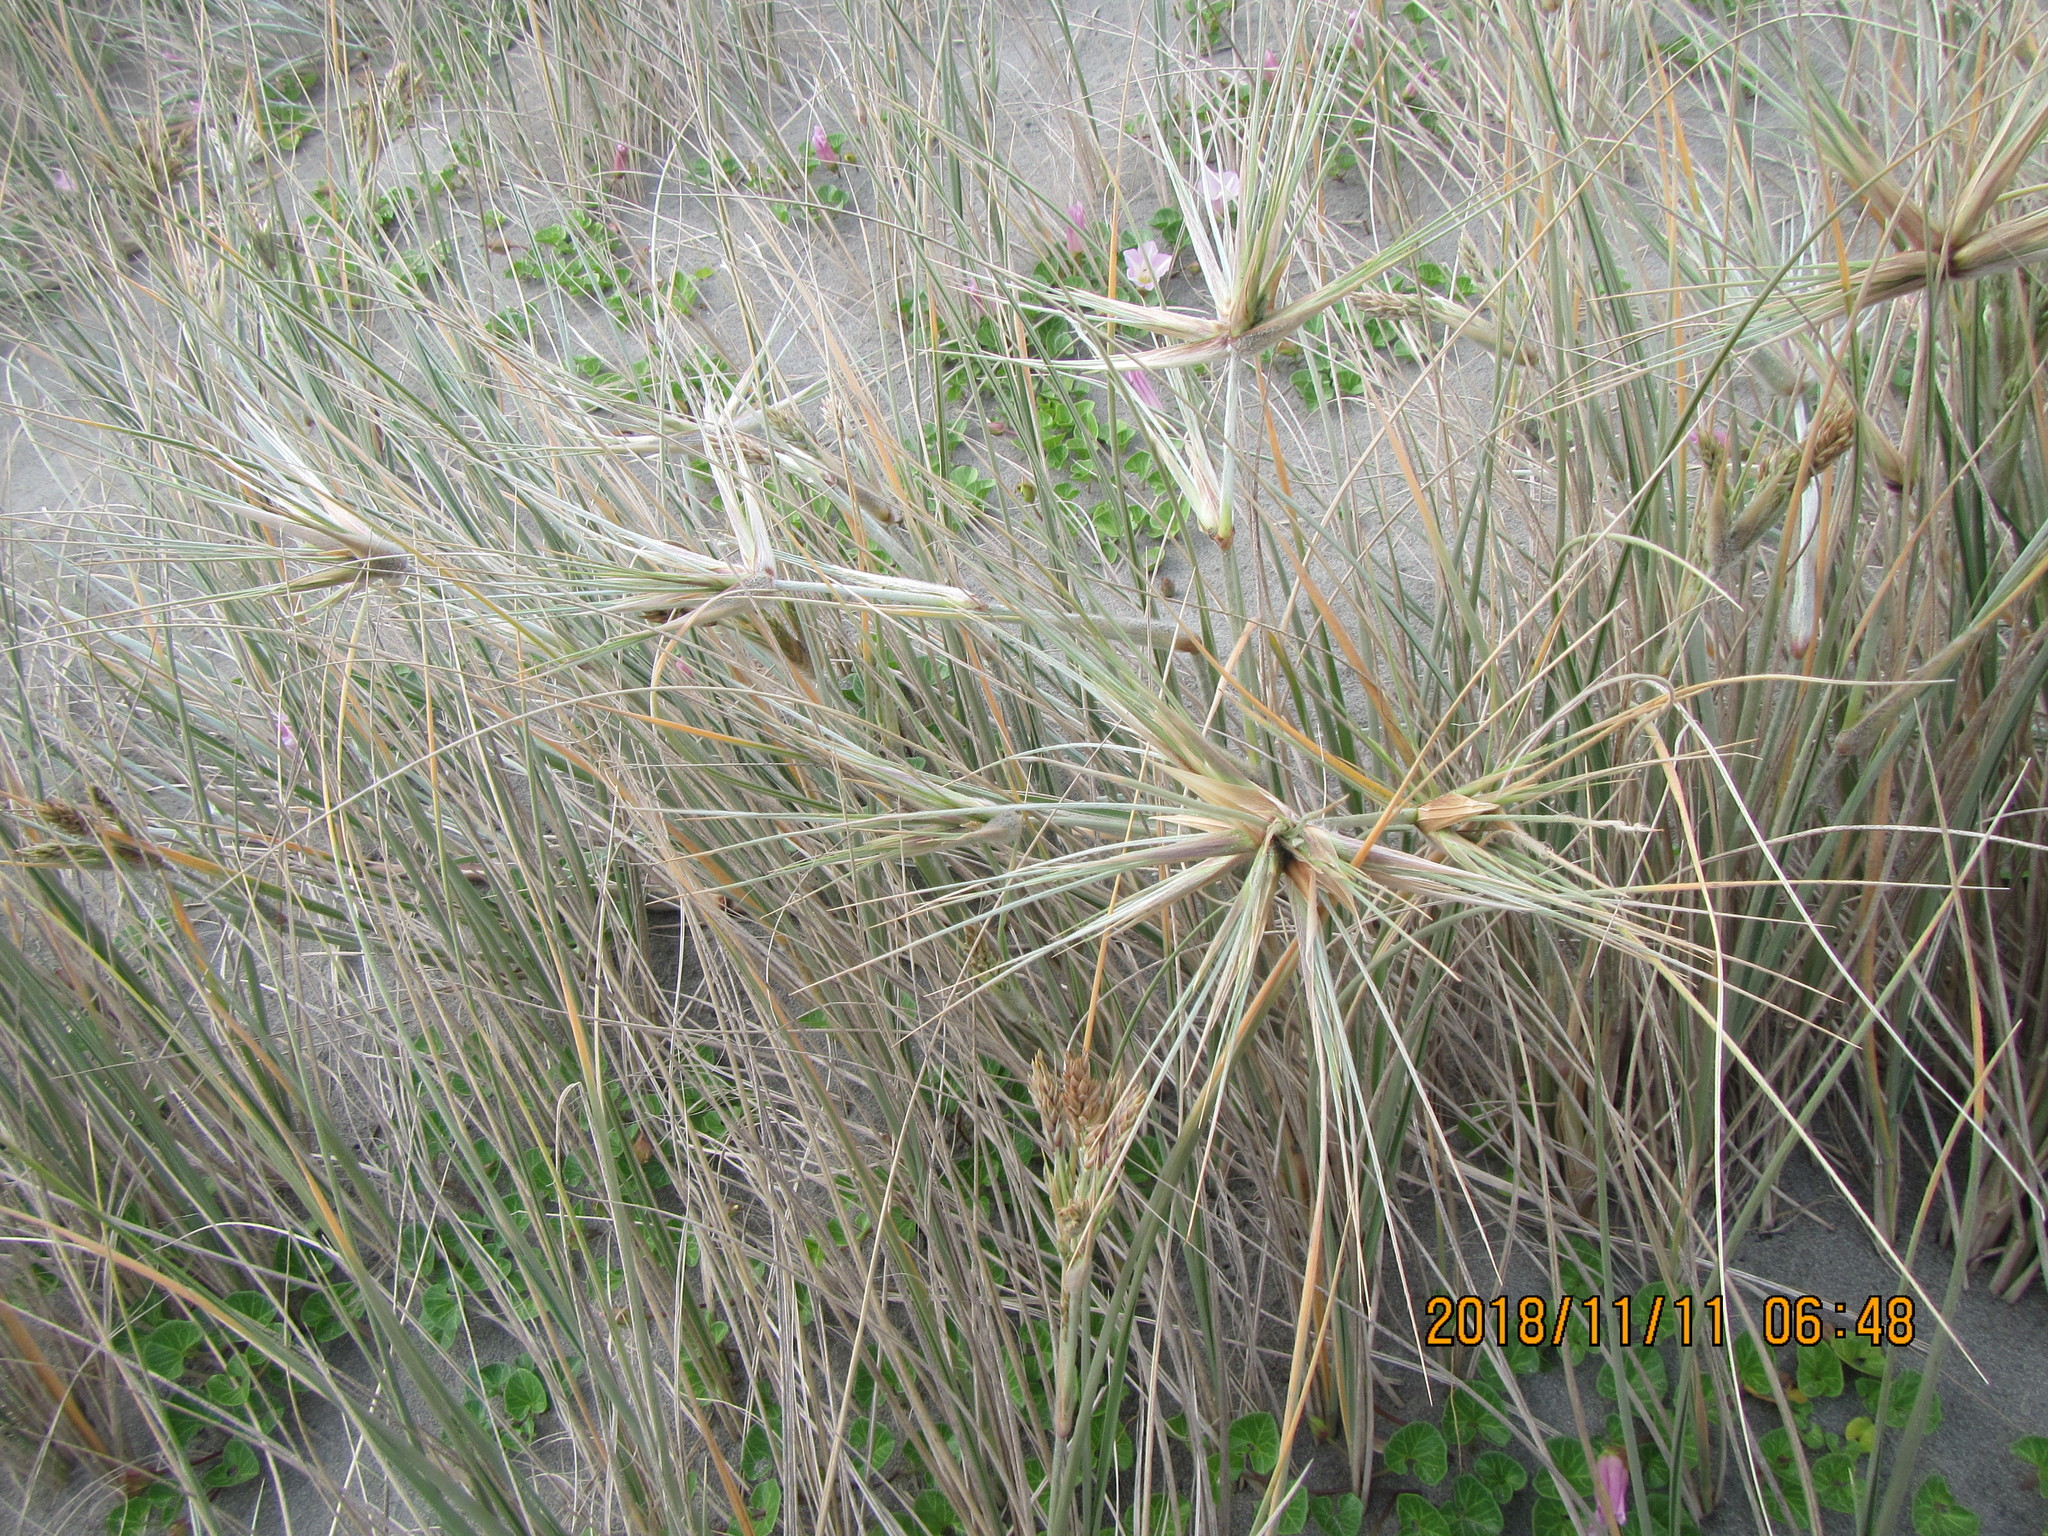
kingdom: Plantae
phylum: Tracheophyta
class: Liliopsida
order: Poales
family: Poaceae
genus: Spinifex
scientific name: Spinifex sericeus
